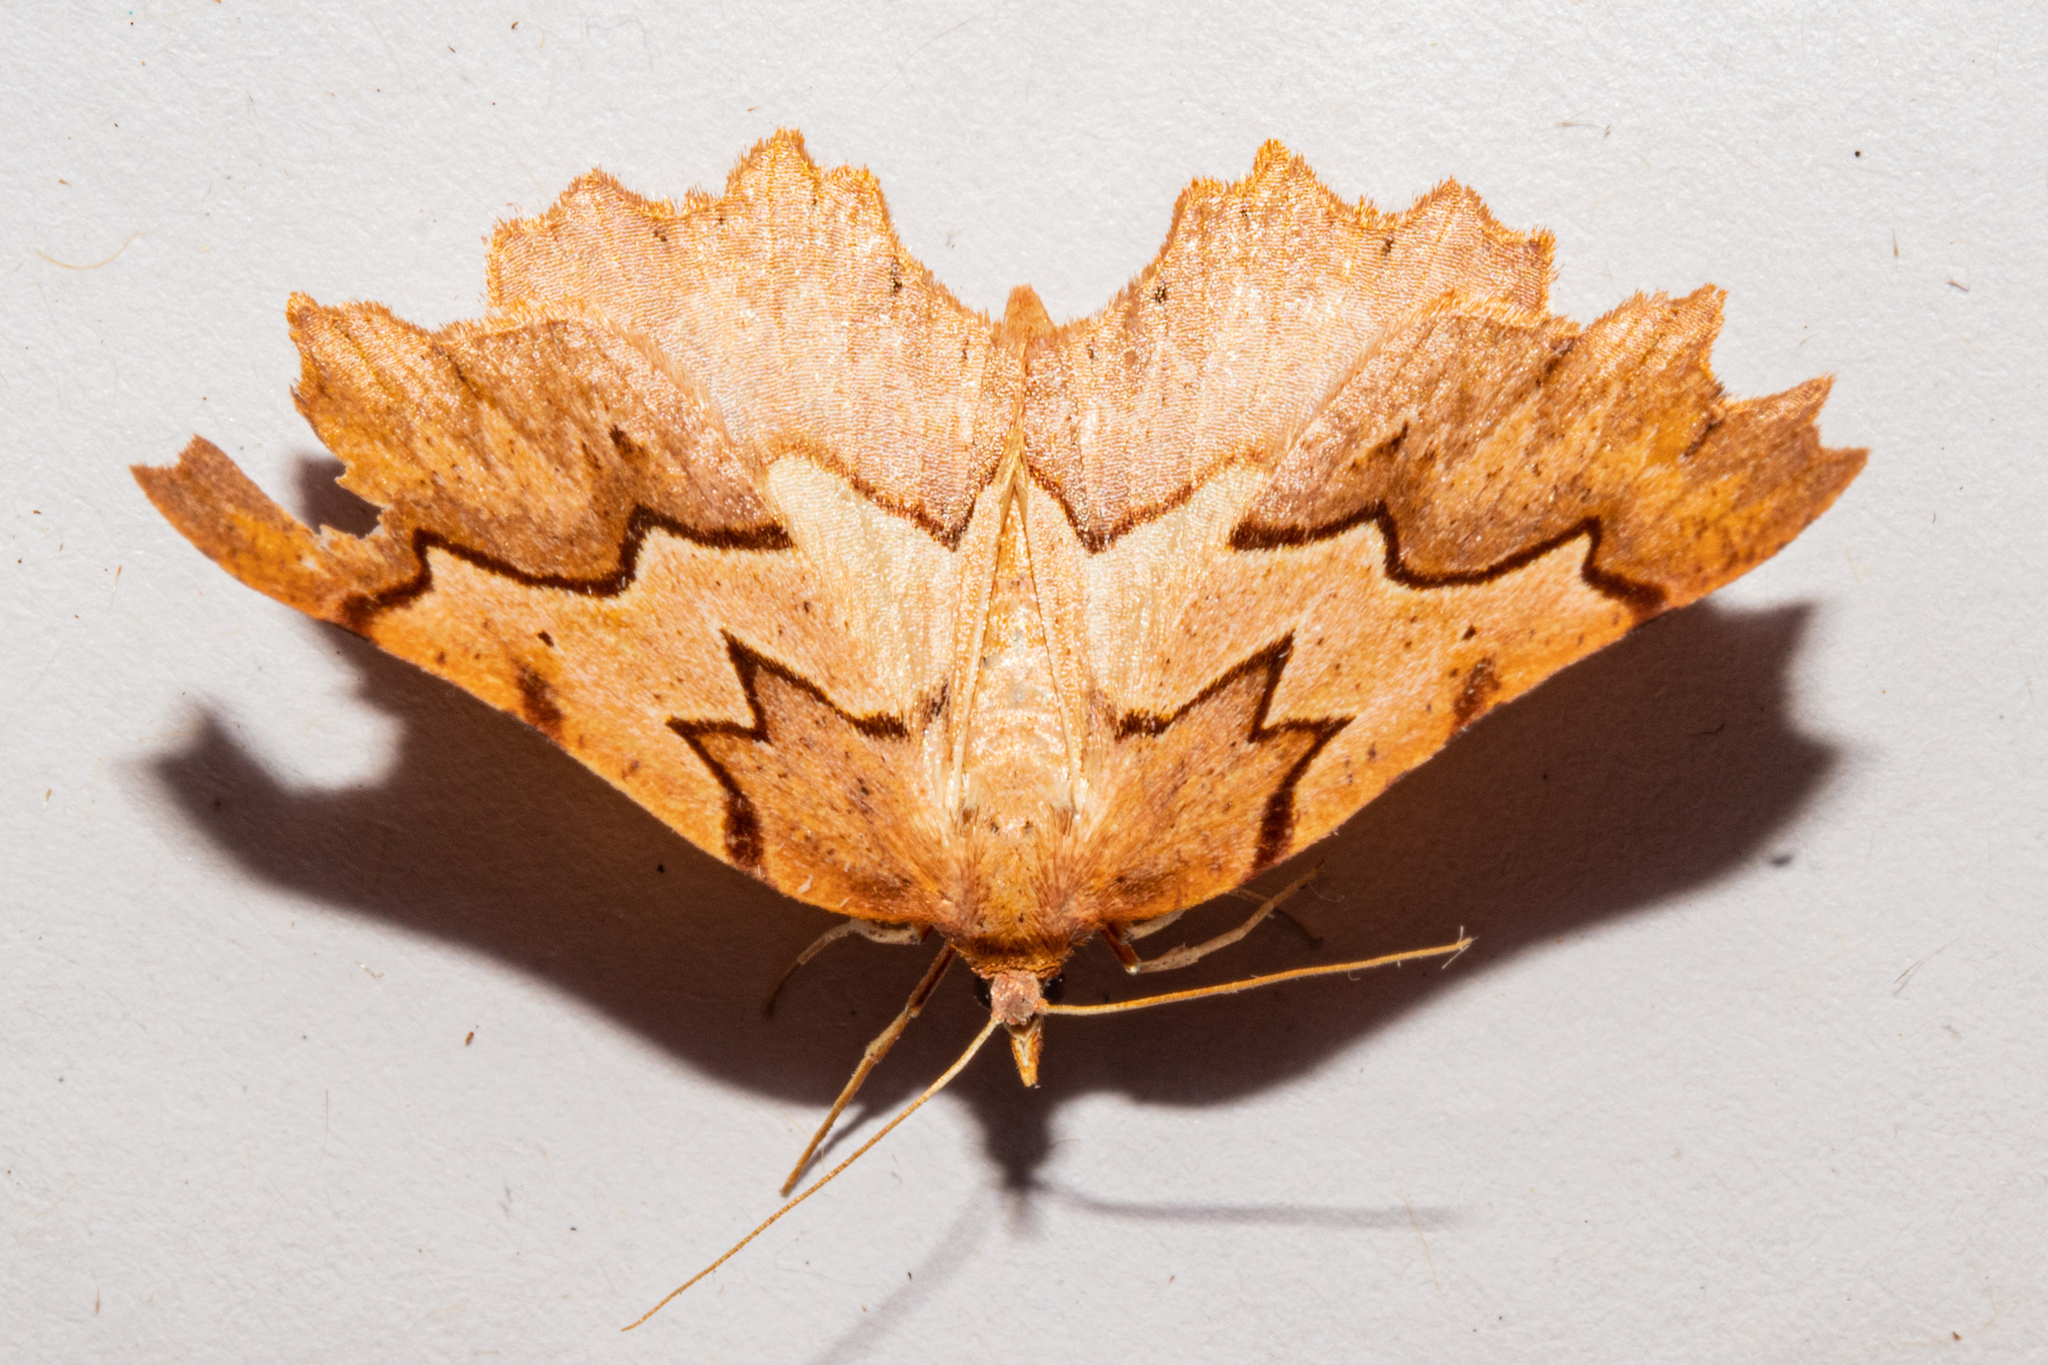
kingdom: Animalia
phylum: Arthropoda
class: Insecta
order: Lepidoptera
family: Geometridae
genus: Ischalis
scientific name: Ischalis fortinata
